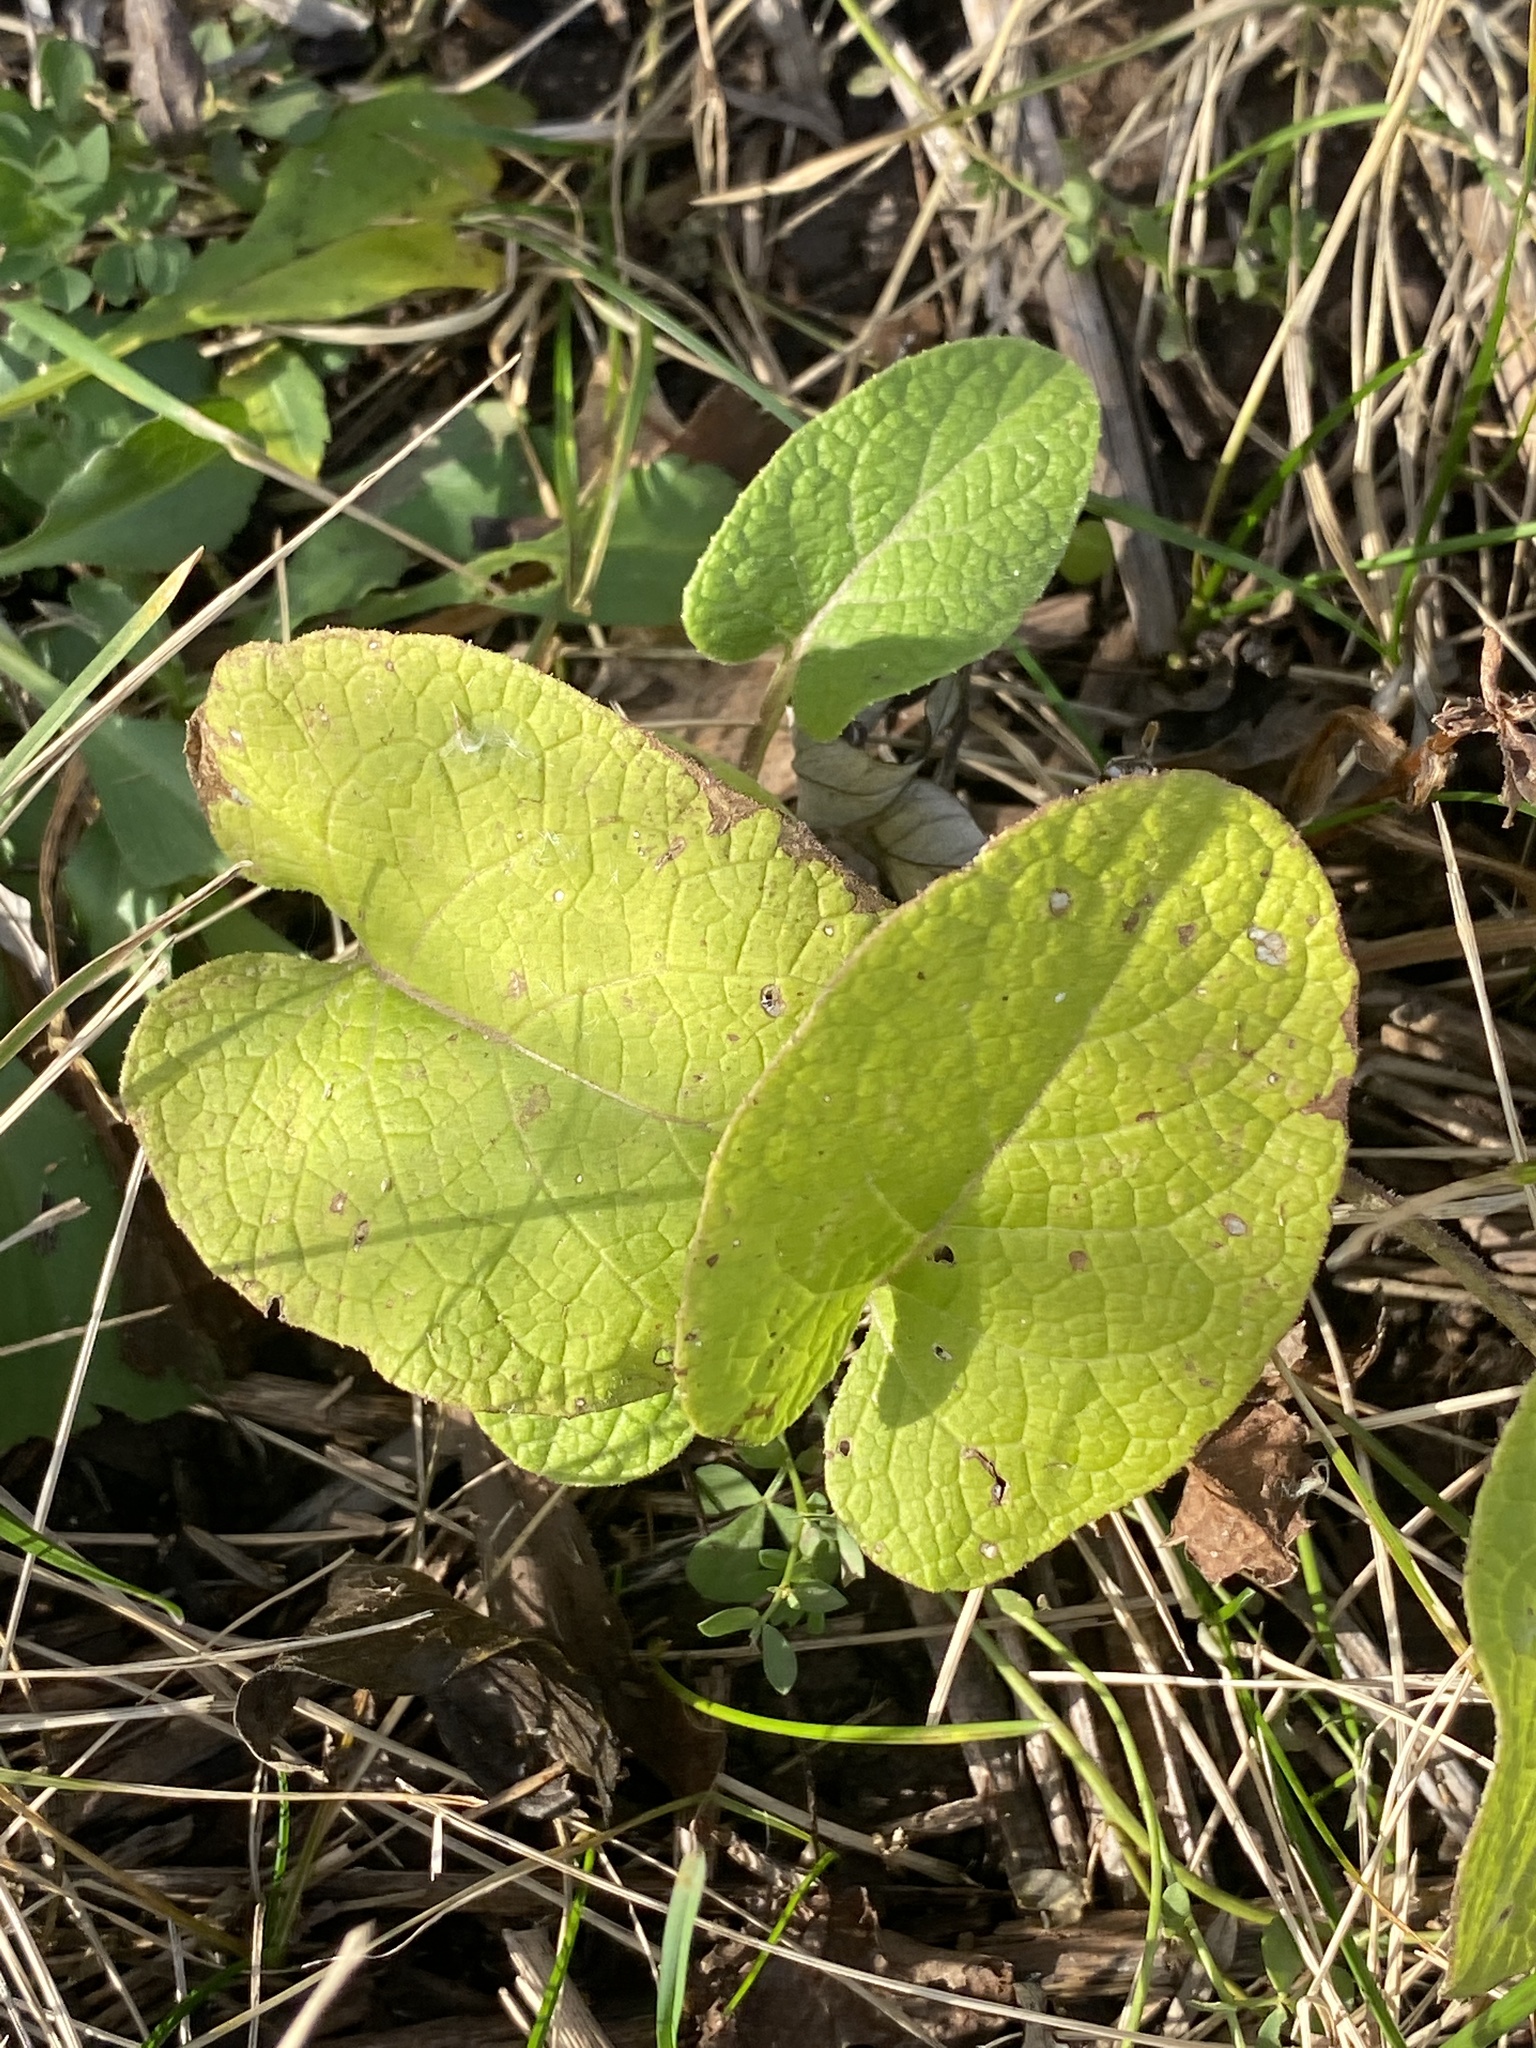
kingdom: Plantae
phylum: Tracheophyta
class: Magnoliopsida
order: Asterales
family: Asteraceae
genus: Arctium
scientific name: Arctium
